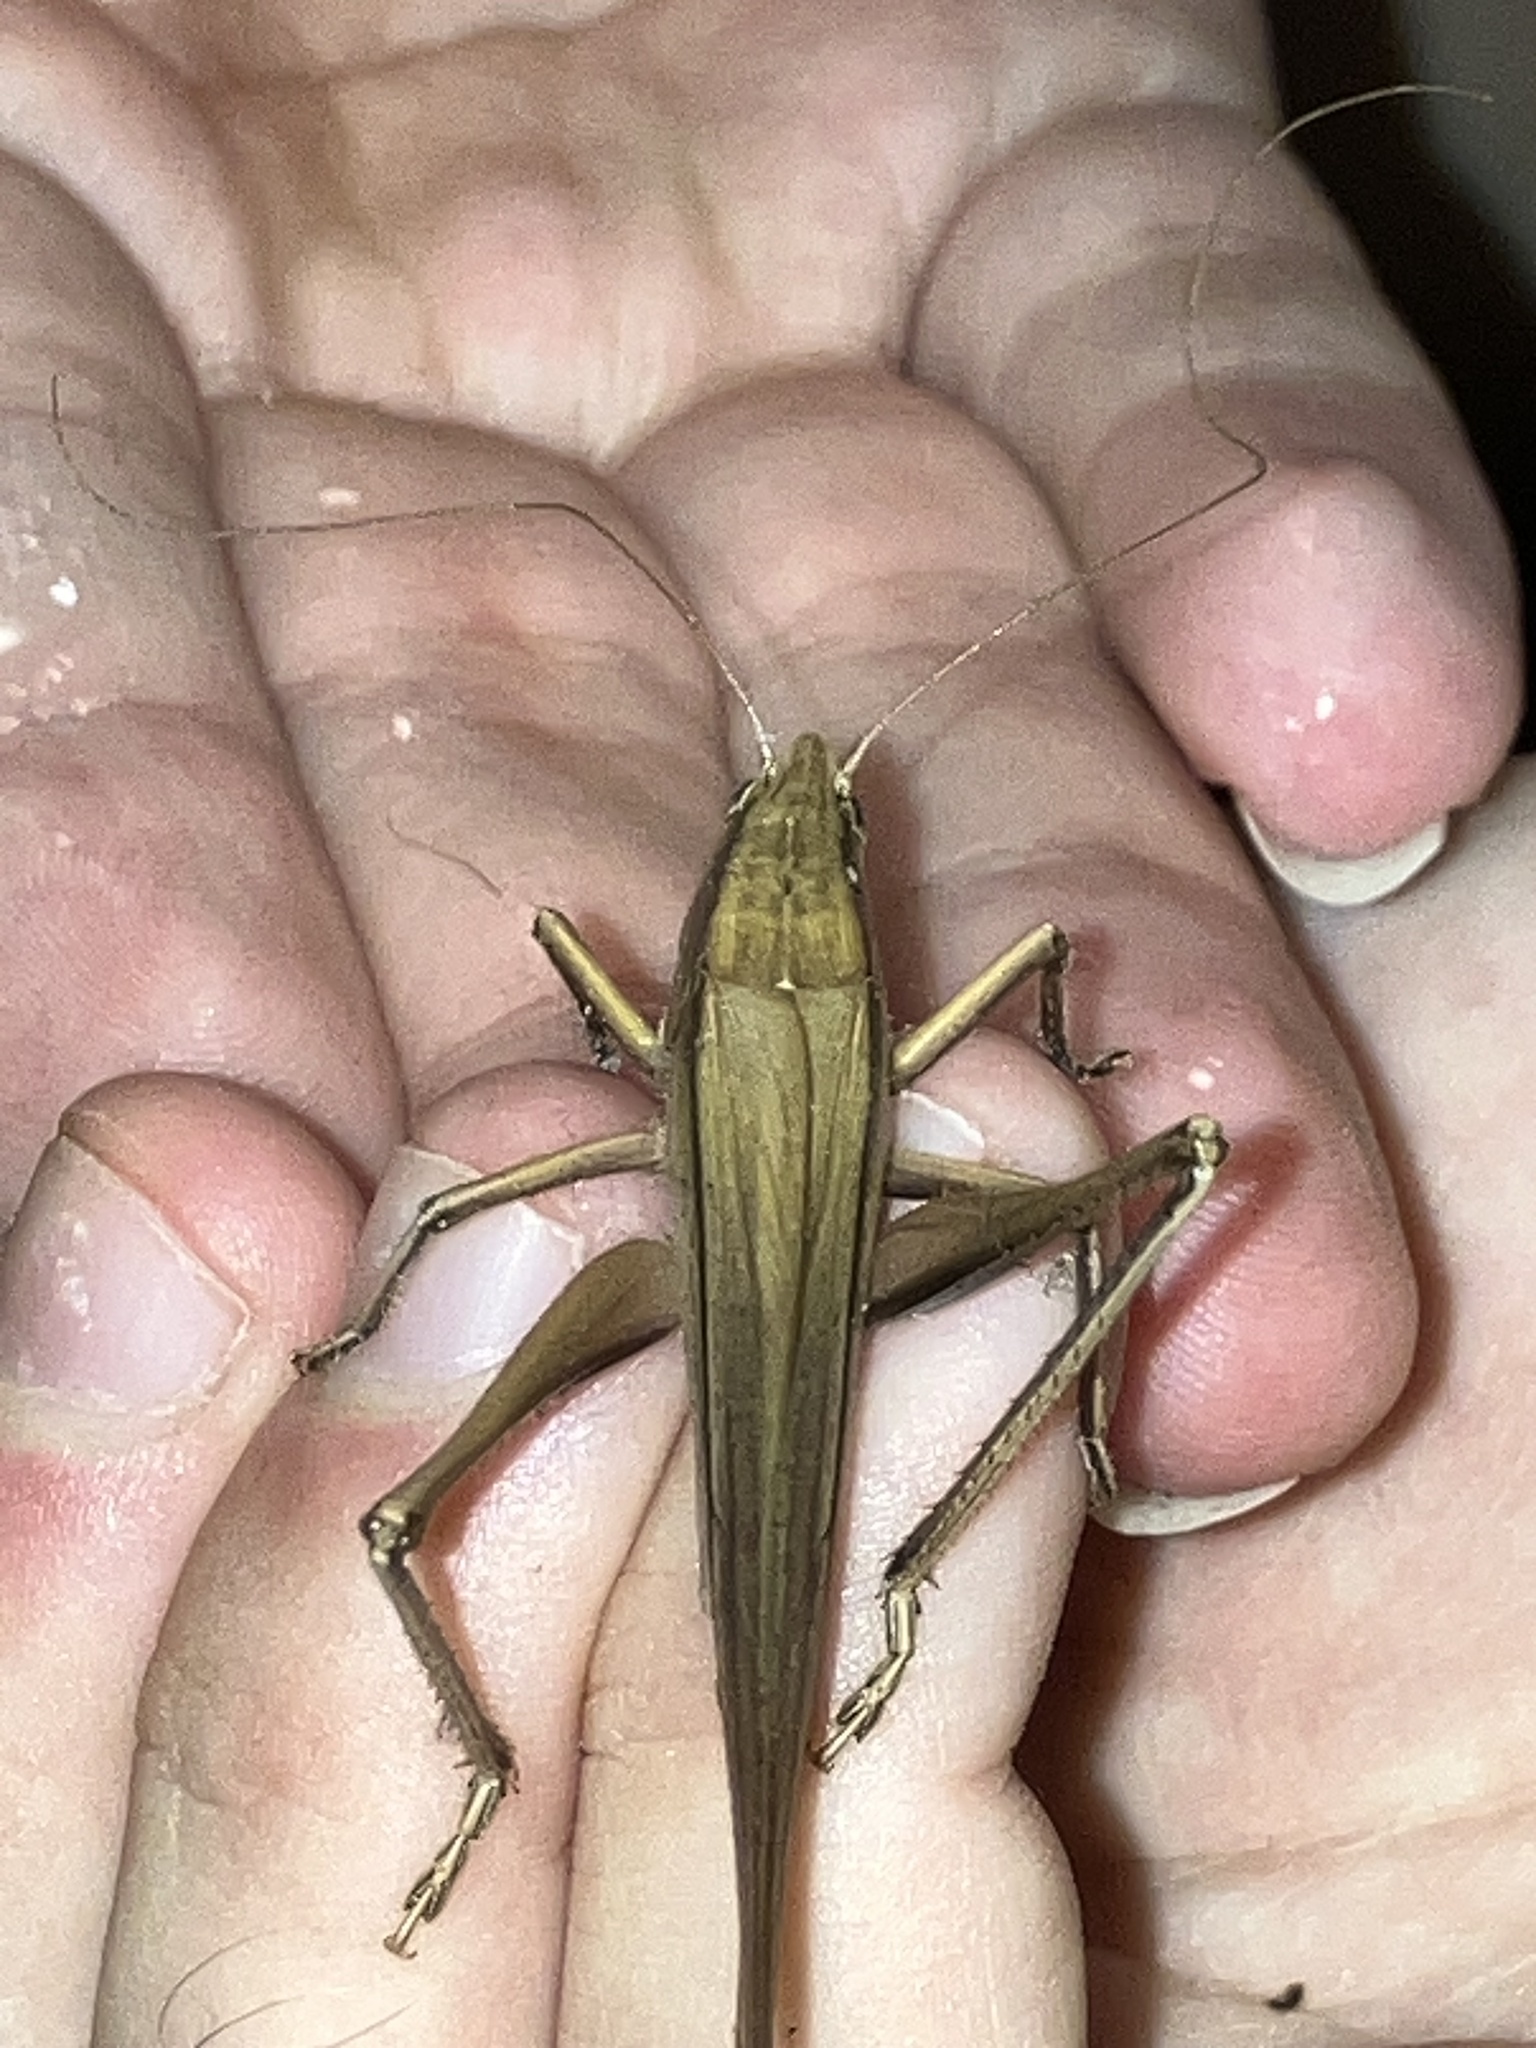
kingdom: Animalia
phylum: Arthropoda
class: Insecta
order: Orthoptera
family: Tettigoniidae
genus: Neoconocephalus
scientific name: Neoconocephalus triops
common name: Broad-tipped conehead
